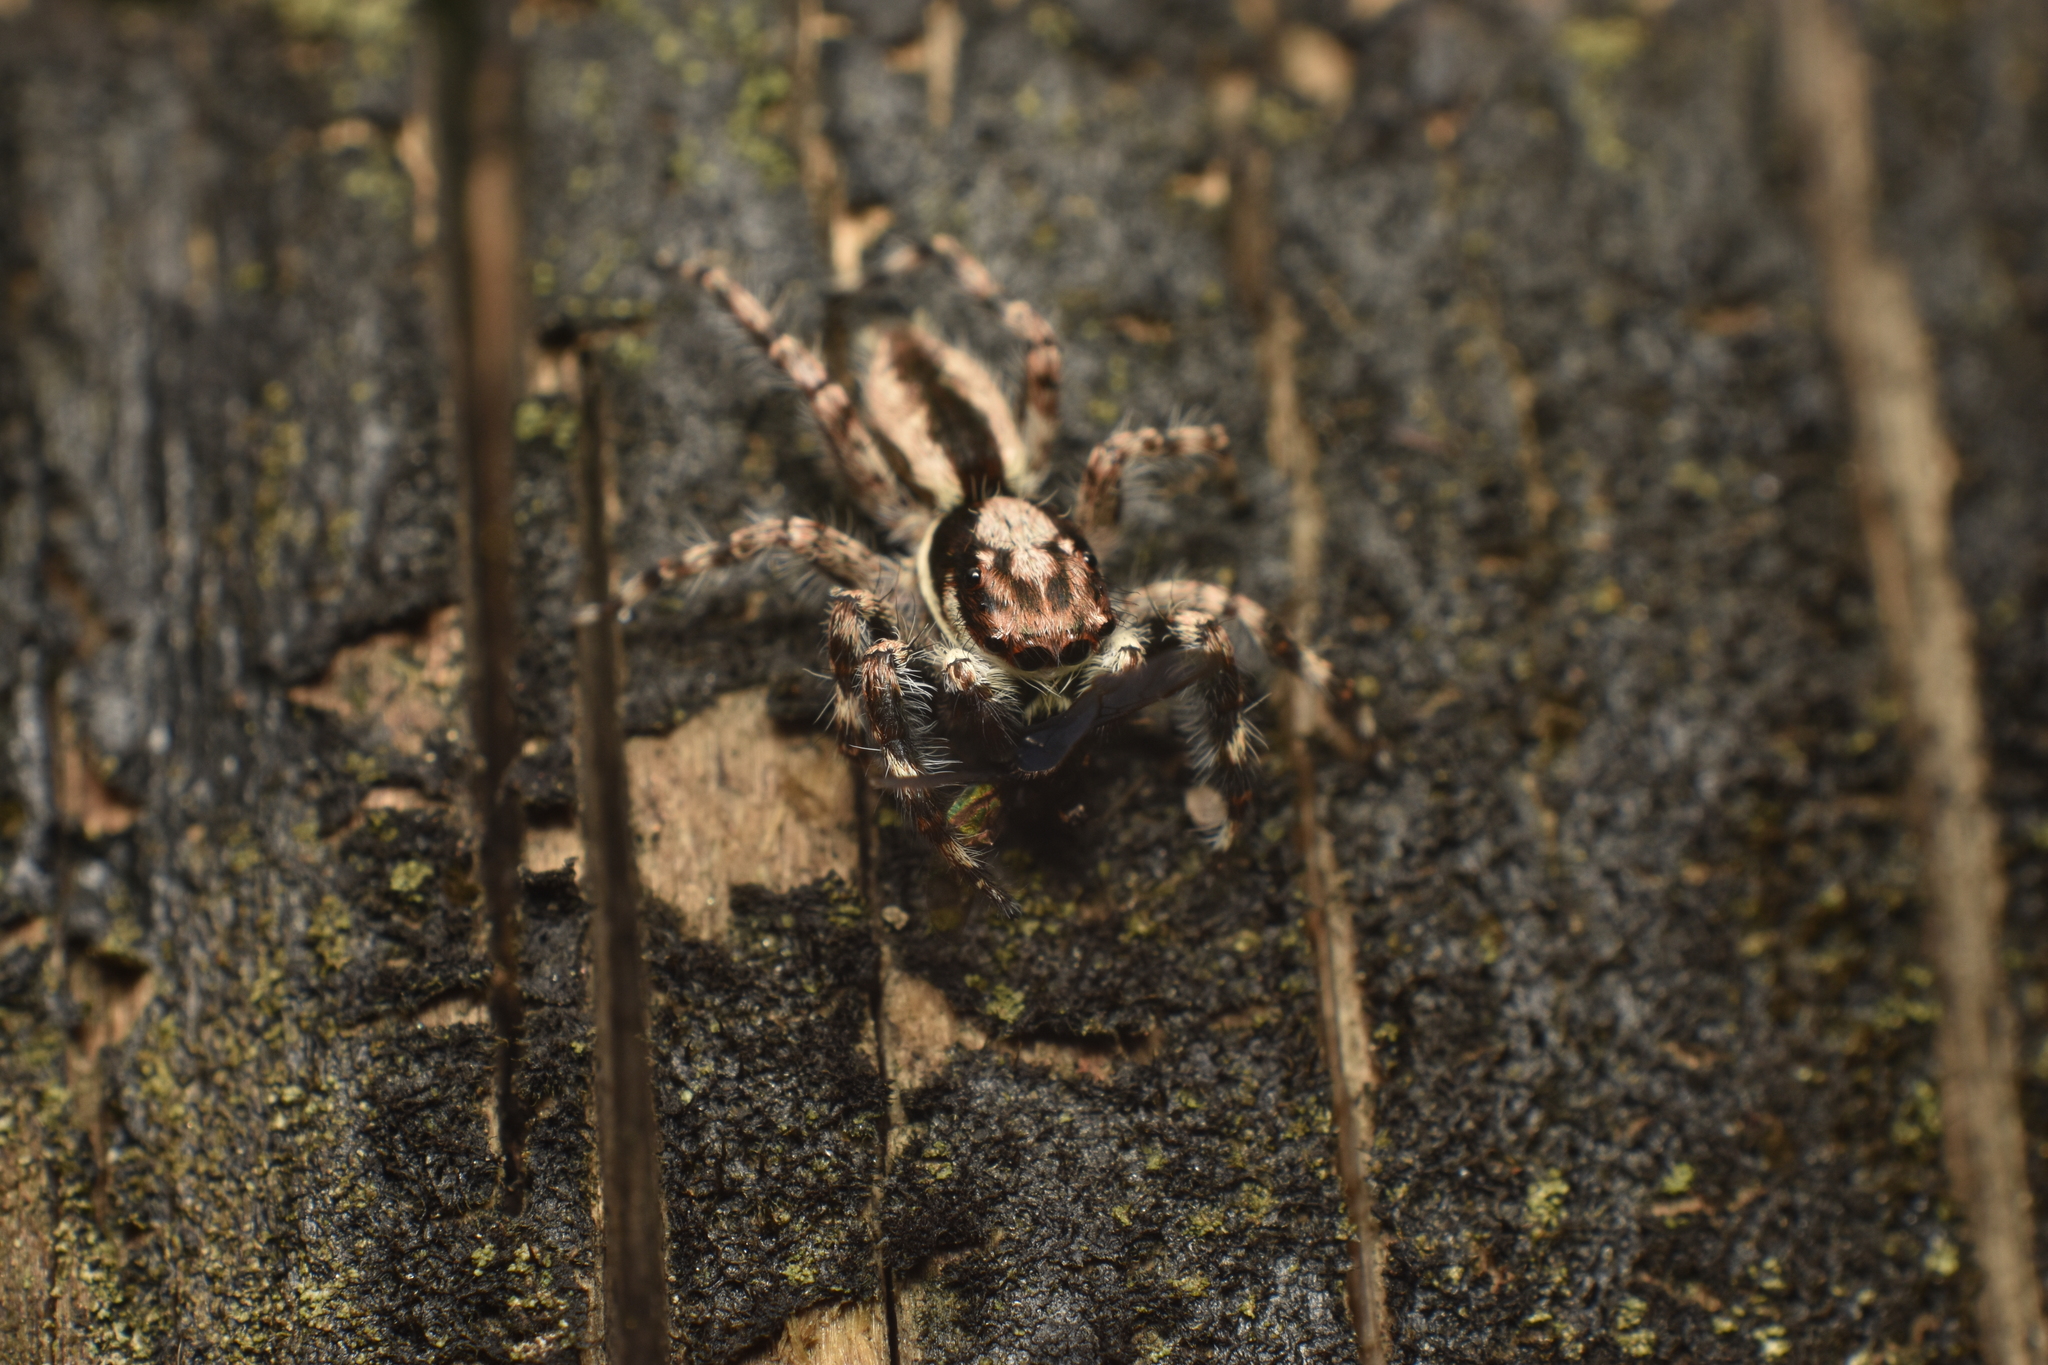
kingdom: Animalia
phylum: Arthropoda
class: Arachnida
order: Araneae
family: Salticidae
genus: Menemerus
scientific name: Menemerus bivittatus
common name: Gray wall jumper
